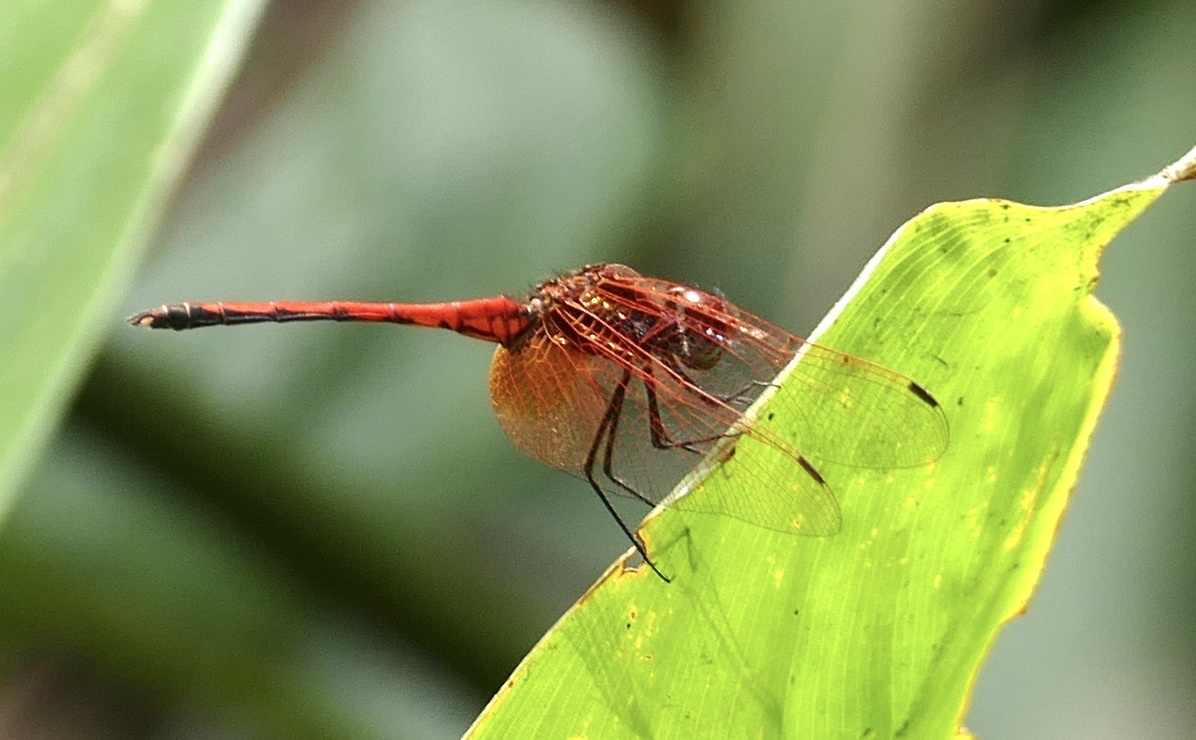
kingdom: Animalia
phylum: Arthropoda
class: Insecta
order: Odonata
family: Libellulidae
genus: Trithemis
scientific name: Trithemis arteriosa
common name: Red-veined dropwing
